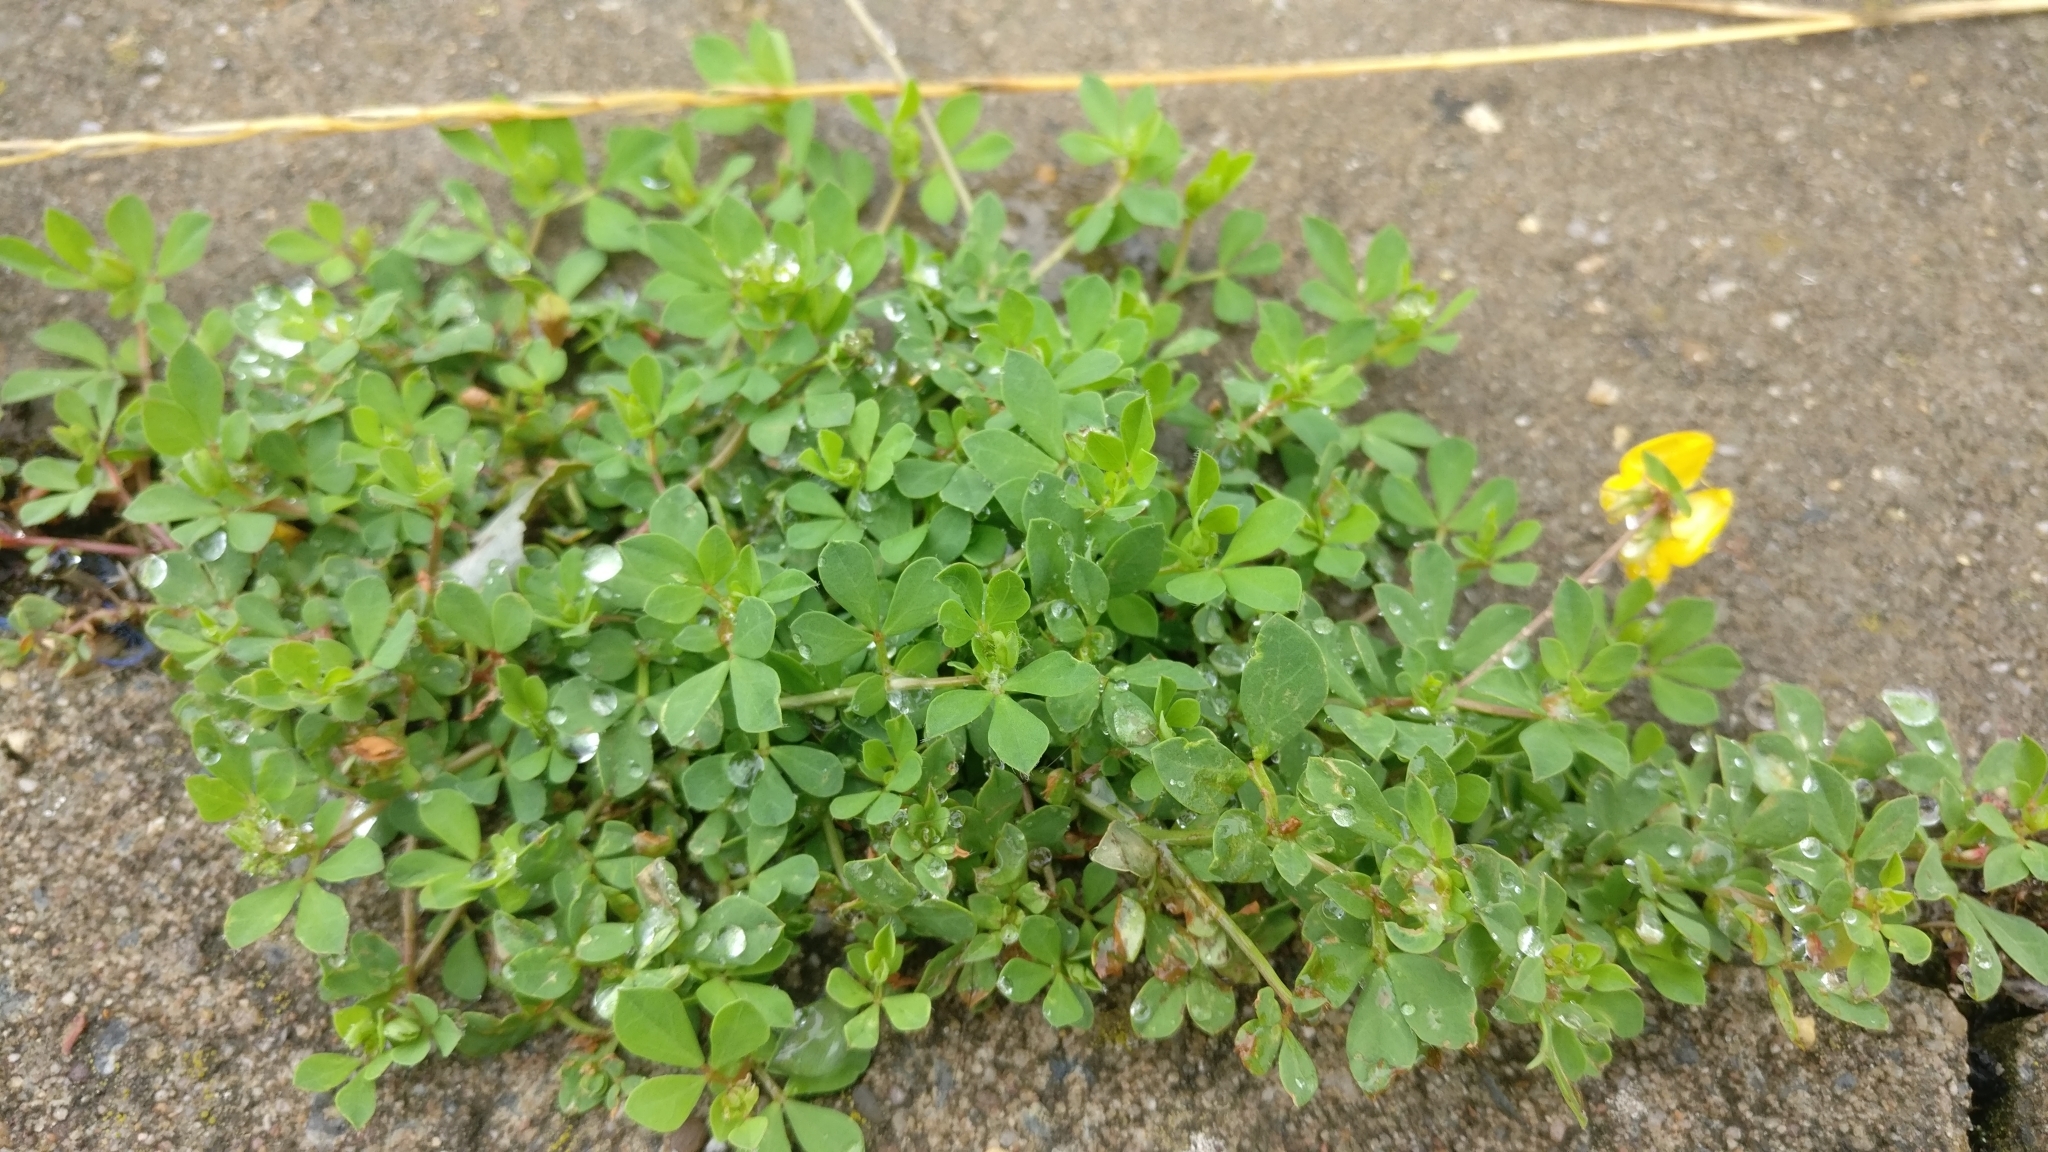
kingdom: Plantae
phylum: Tracheophyta
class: Magnoliopsida
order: Fabales
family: Fabaceae
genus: Lotus
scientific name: Lotus corniculatus
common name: Common bird's-foot-trefoil
